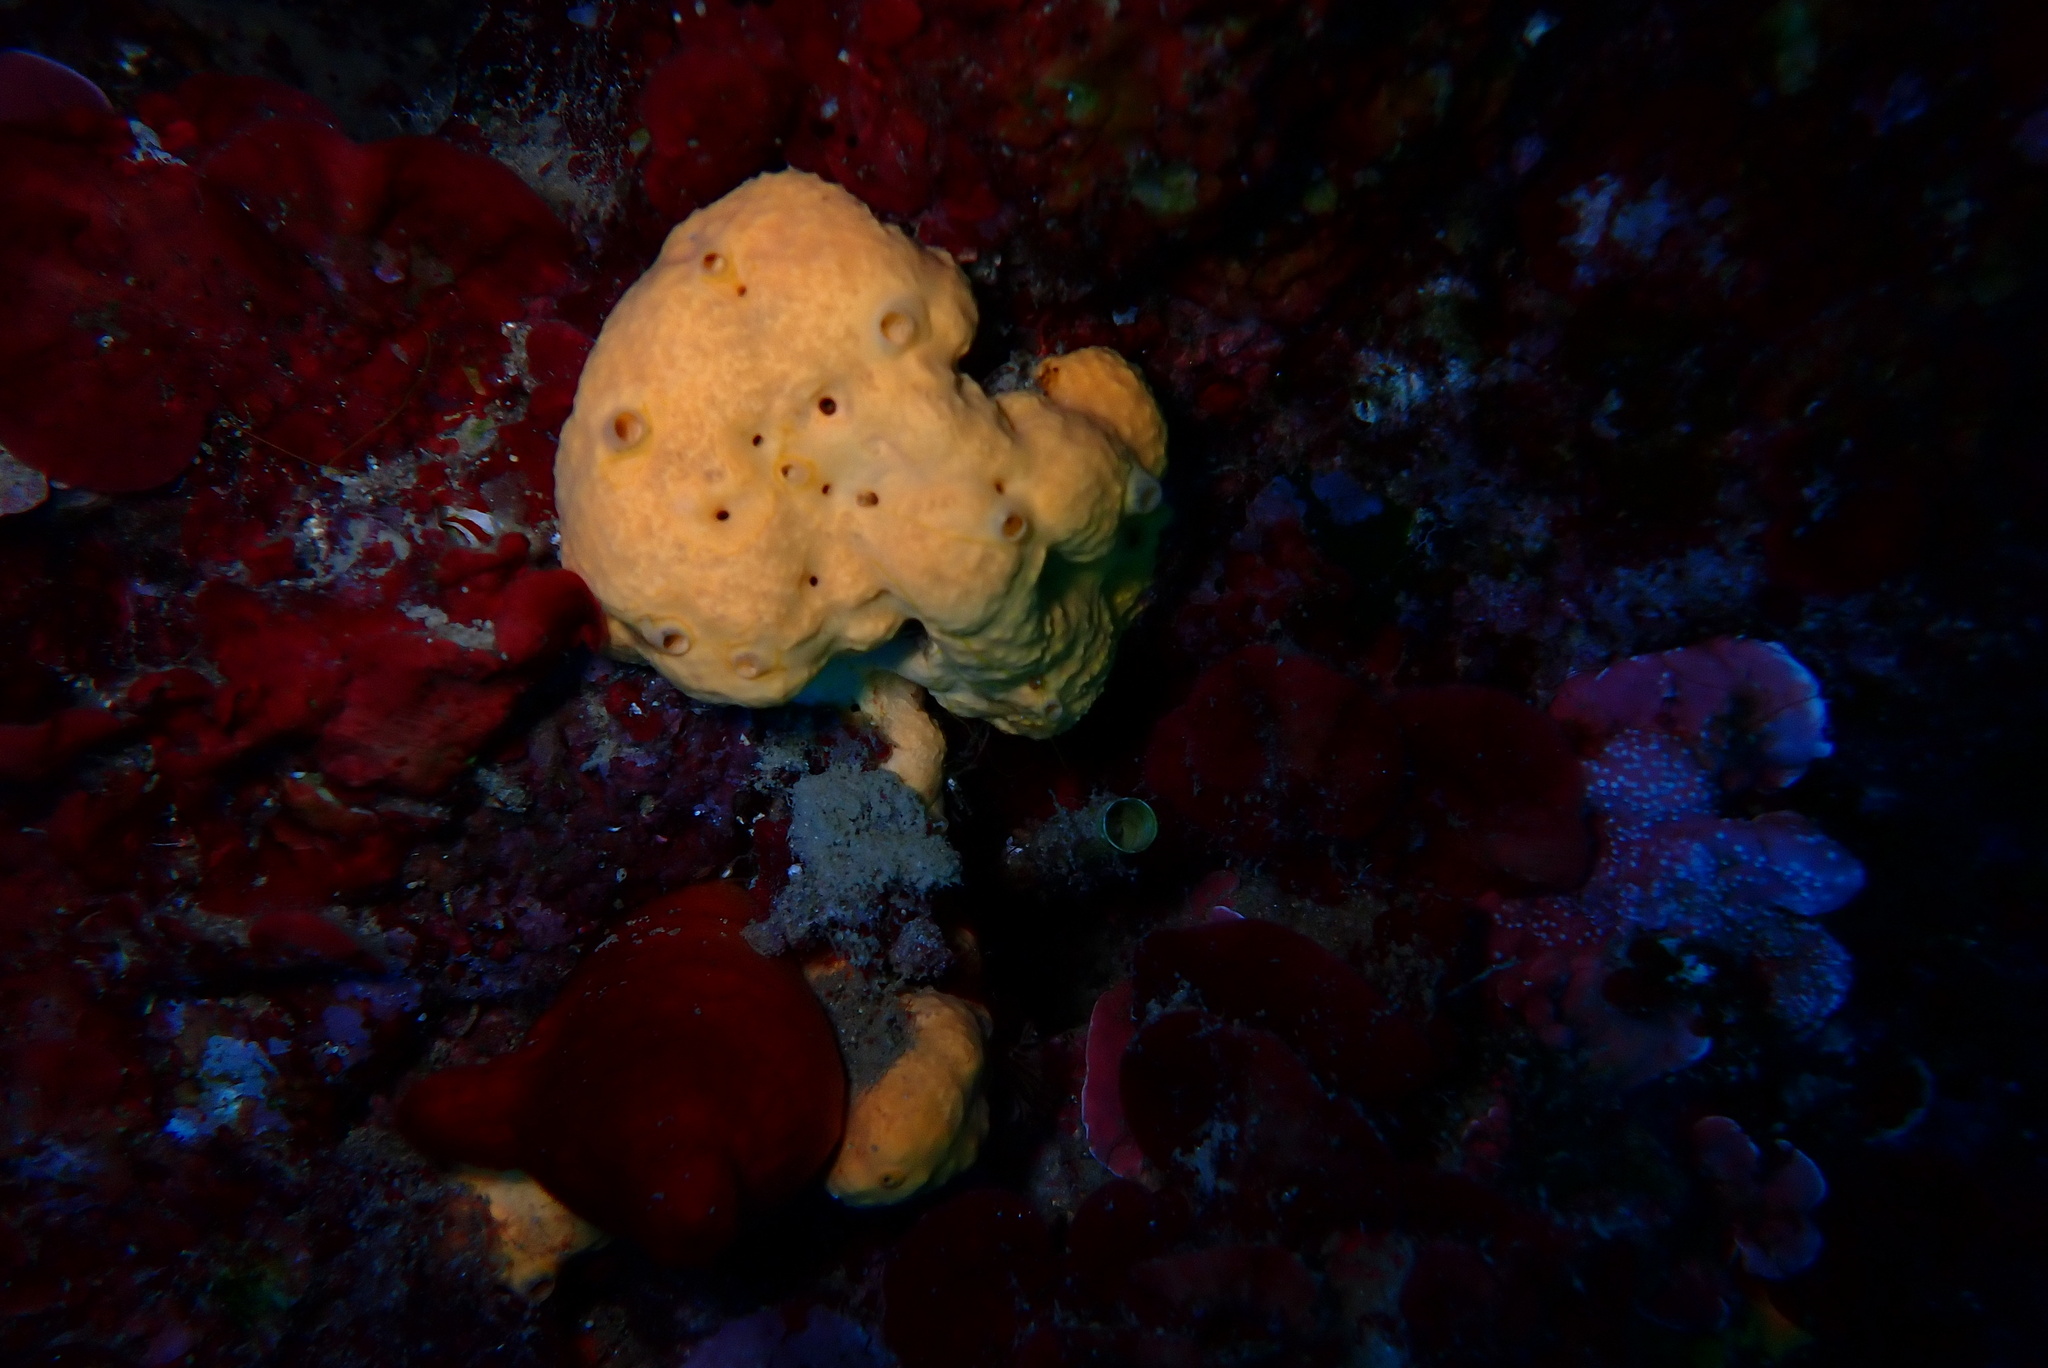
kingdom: Animalia
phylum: Porifera
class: Demospongiae
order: Agelasida
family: Agelasidae
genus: Agelas
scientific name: Agelas oroides
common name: Maltese sponge
